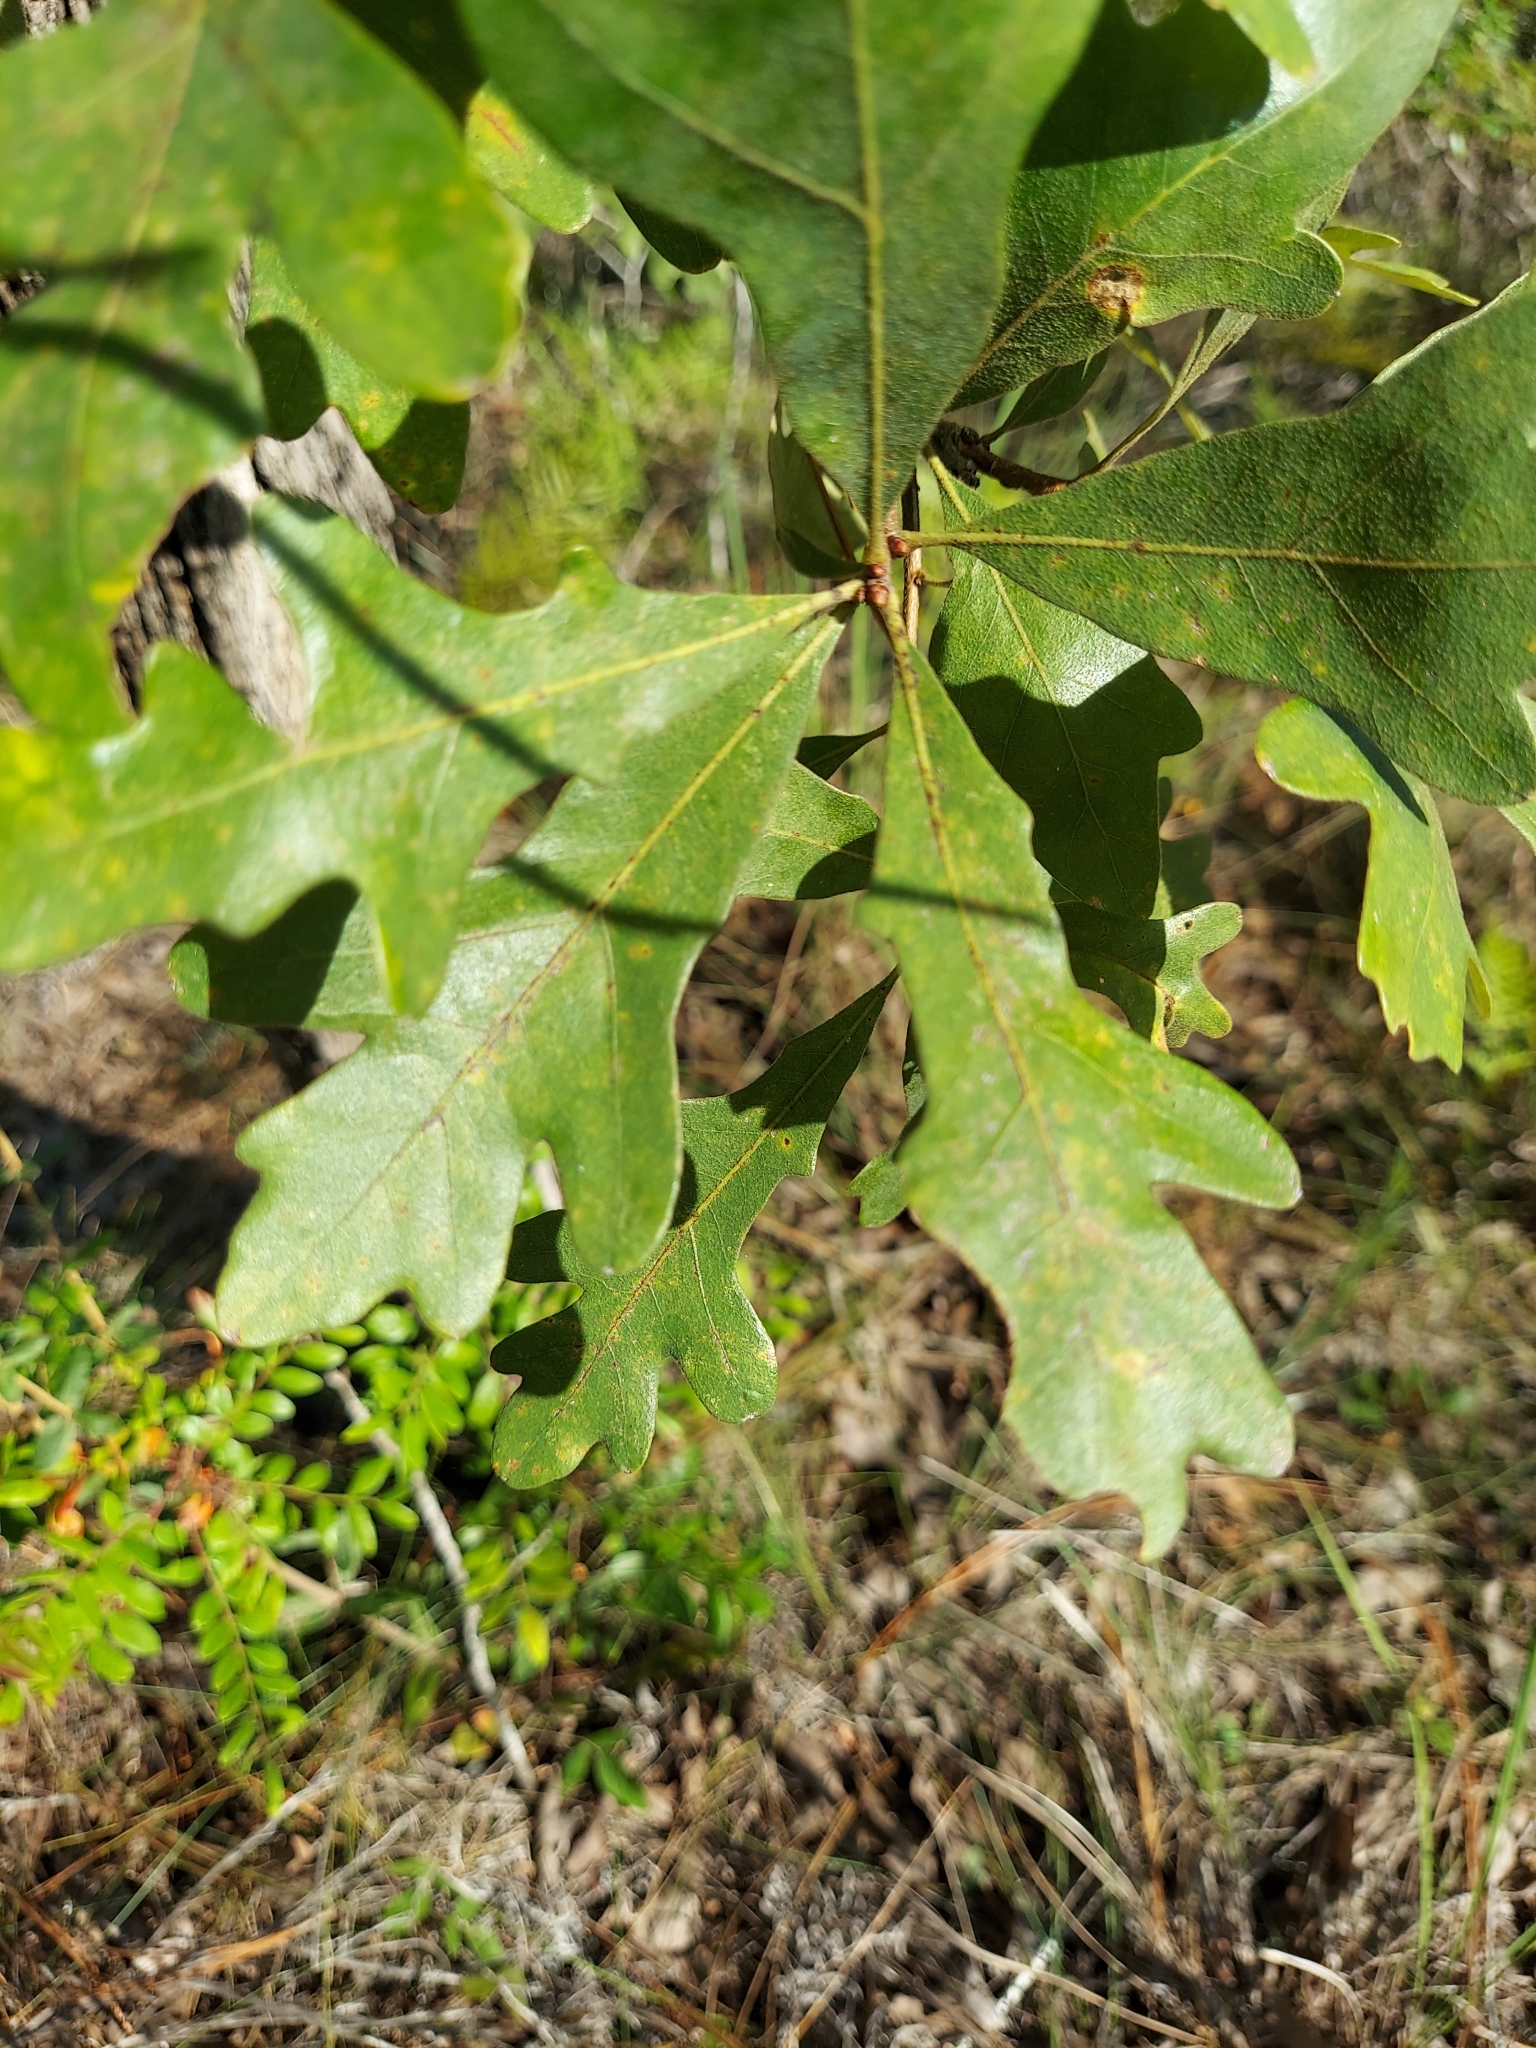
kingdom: Plantae
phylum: Tracheophyta
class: Magnoliopsida
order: Fagales
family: Fagaceae
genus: Quercus
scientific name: Quercus margaretiae
